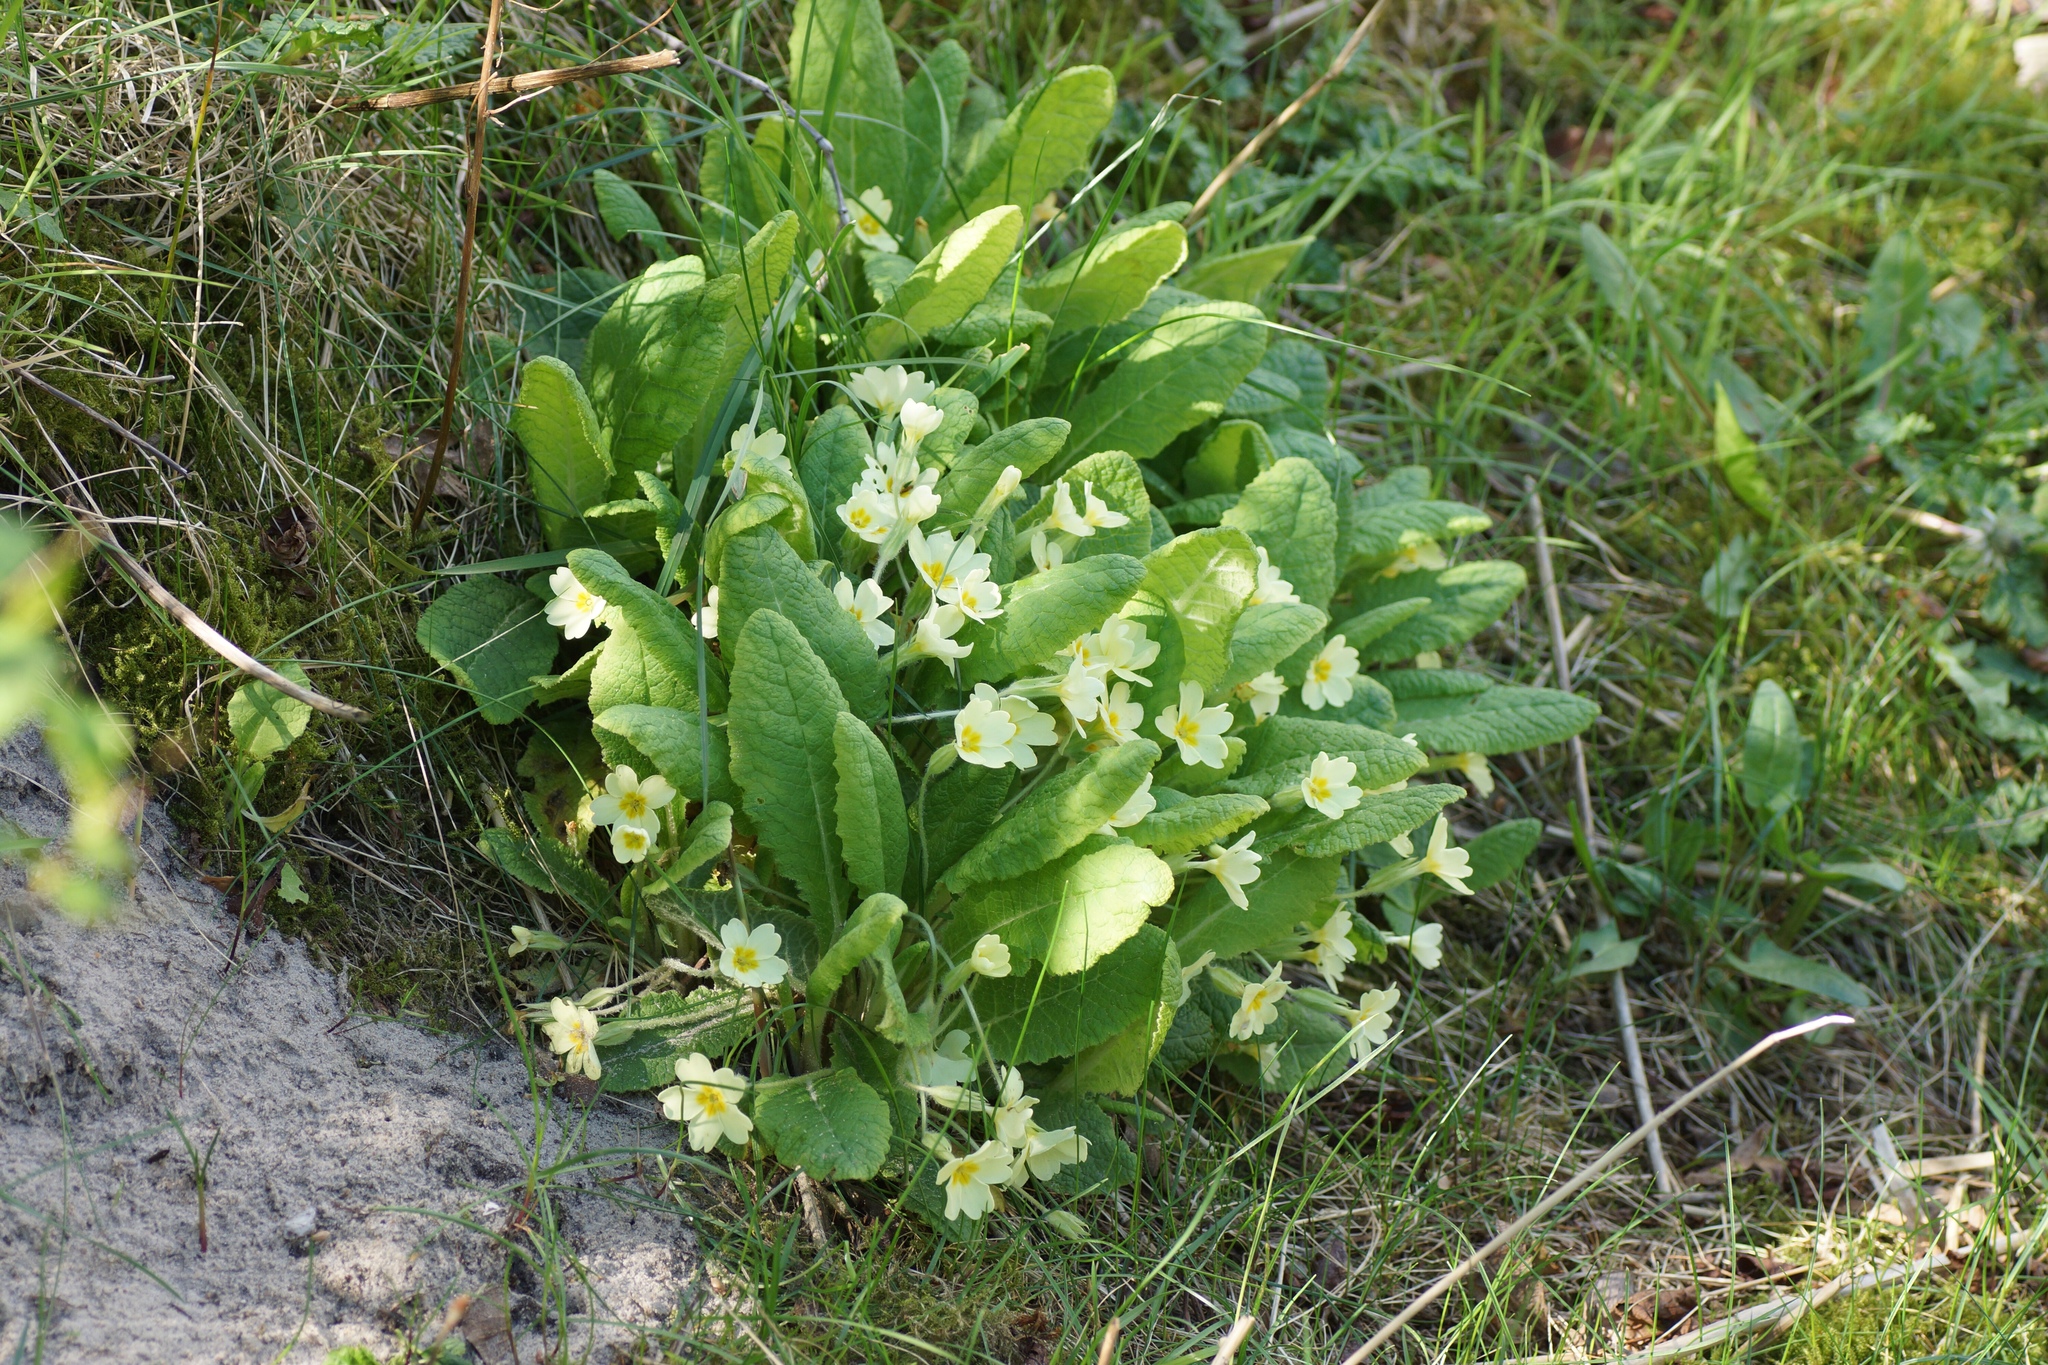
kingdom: Plantae
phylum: Tracheophyta
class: Magnoliopsida
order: Ericales
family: Primulaceae
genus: Primula
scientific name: Primula vulgaris
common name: Primrose
